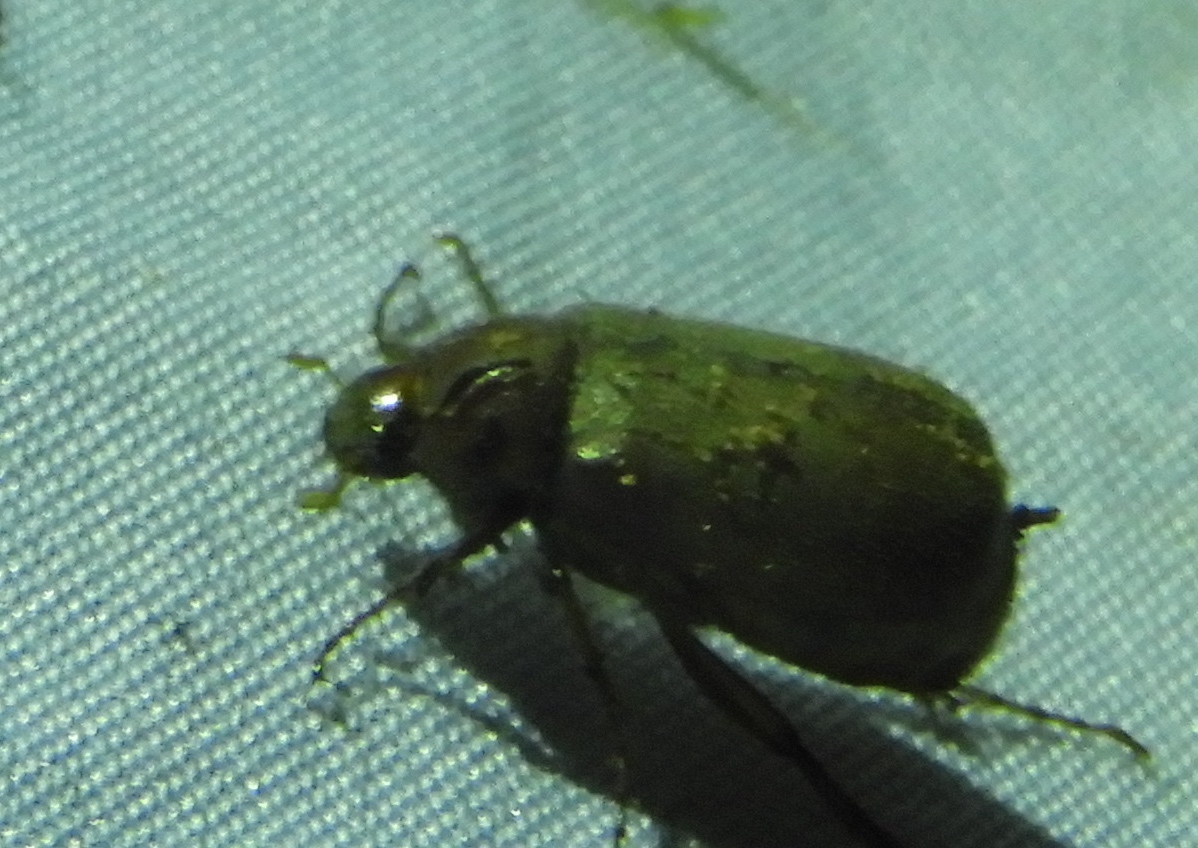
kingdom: Animalia
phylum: Arthropoda
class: Insecta
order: Coleoptera
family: Melolonthidae
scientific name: Melolonthidae
